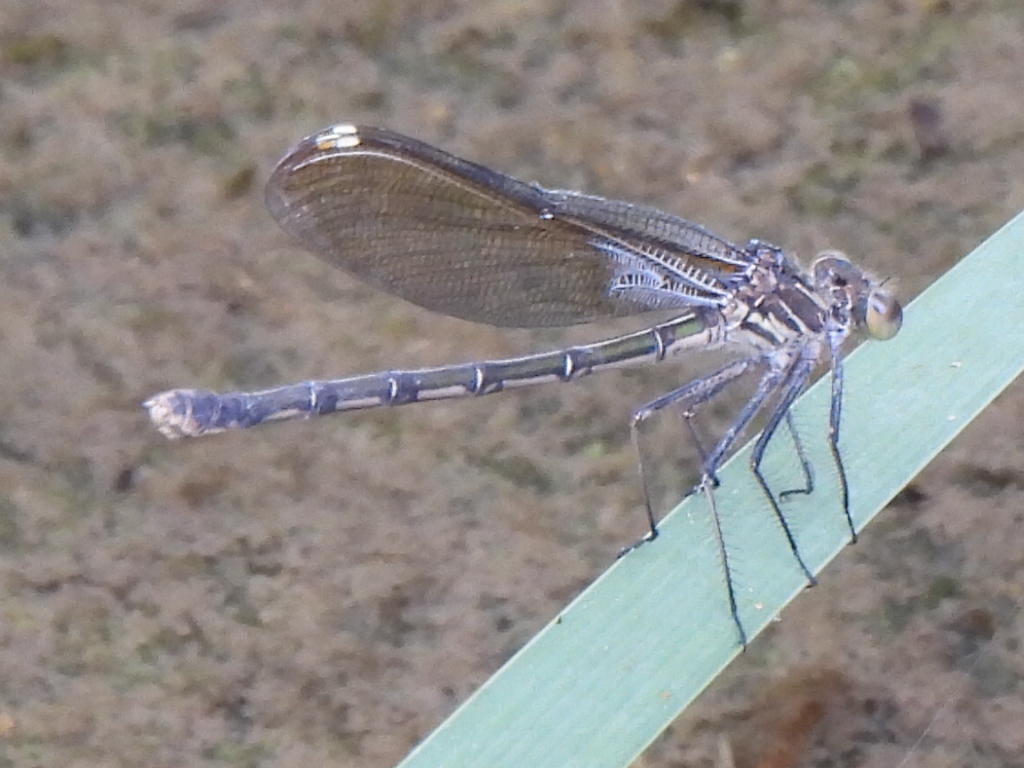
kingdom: Animalia
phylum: Arthropoda
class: Insecta
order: Odonata
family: Calopterygidae
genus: Hetaerina
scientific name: Hetaerina americana
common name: American rubyspot
